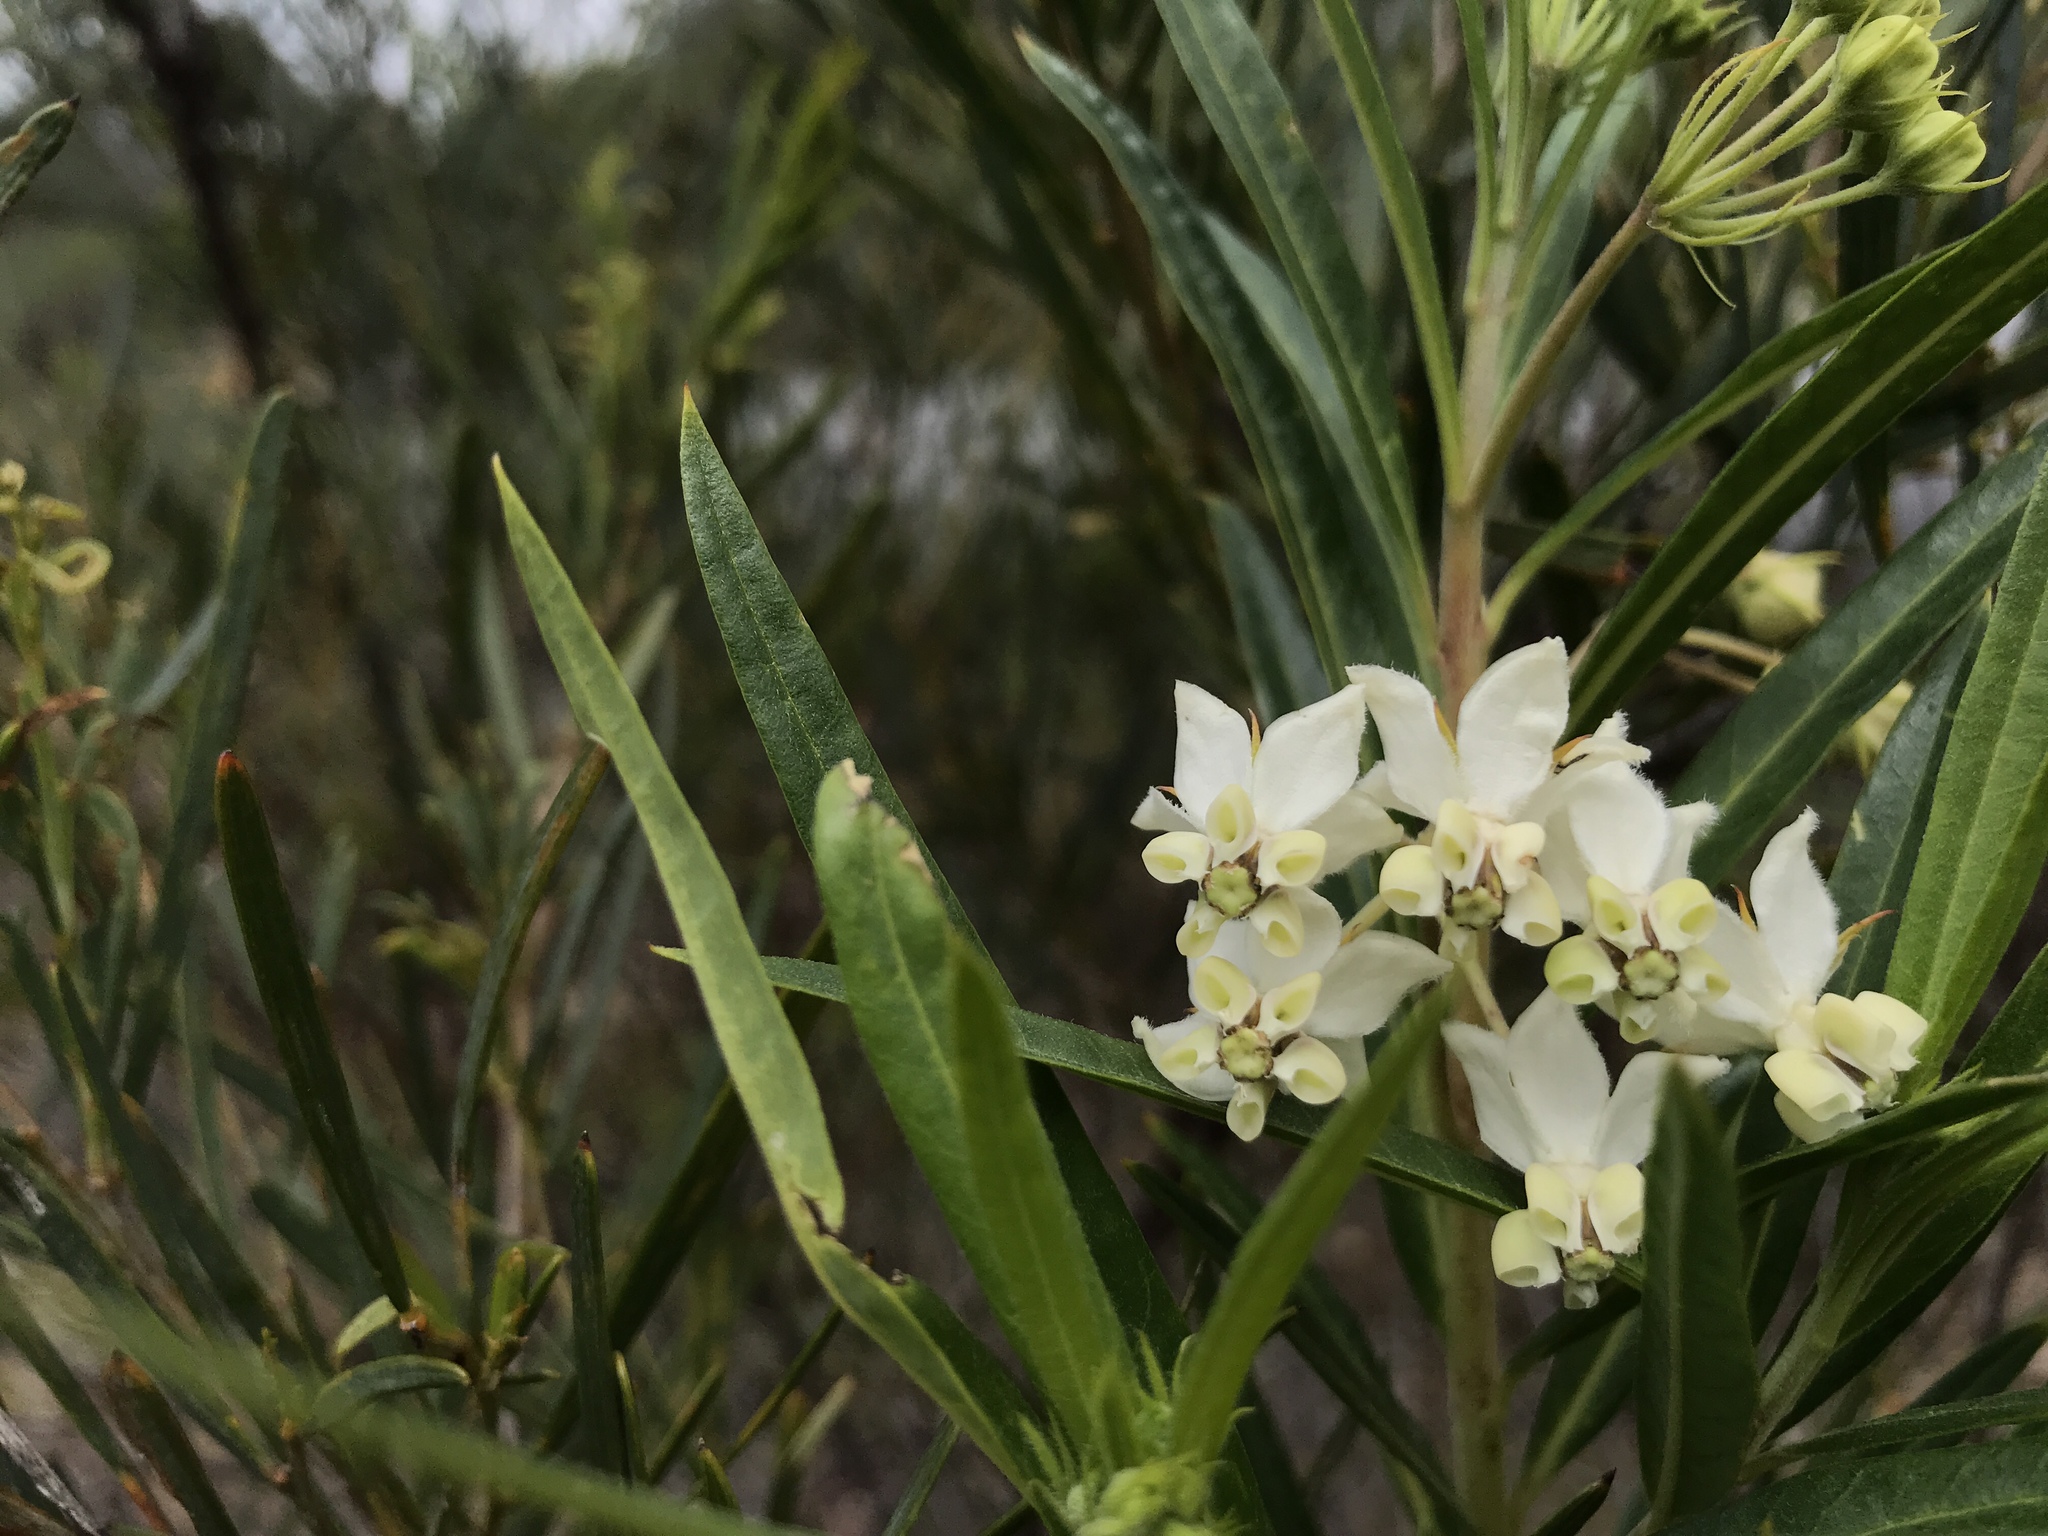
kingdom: Plantae
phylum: Tracheophyta
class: Magnoliopsida
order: Gentianales
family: Apocynaceae
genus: Gomphocarpus
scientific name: Gomphocarpus physocarpus
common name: Balloon cotton bush
